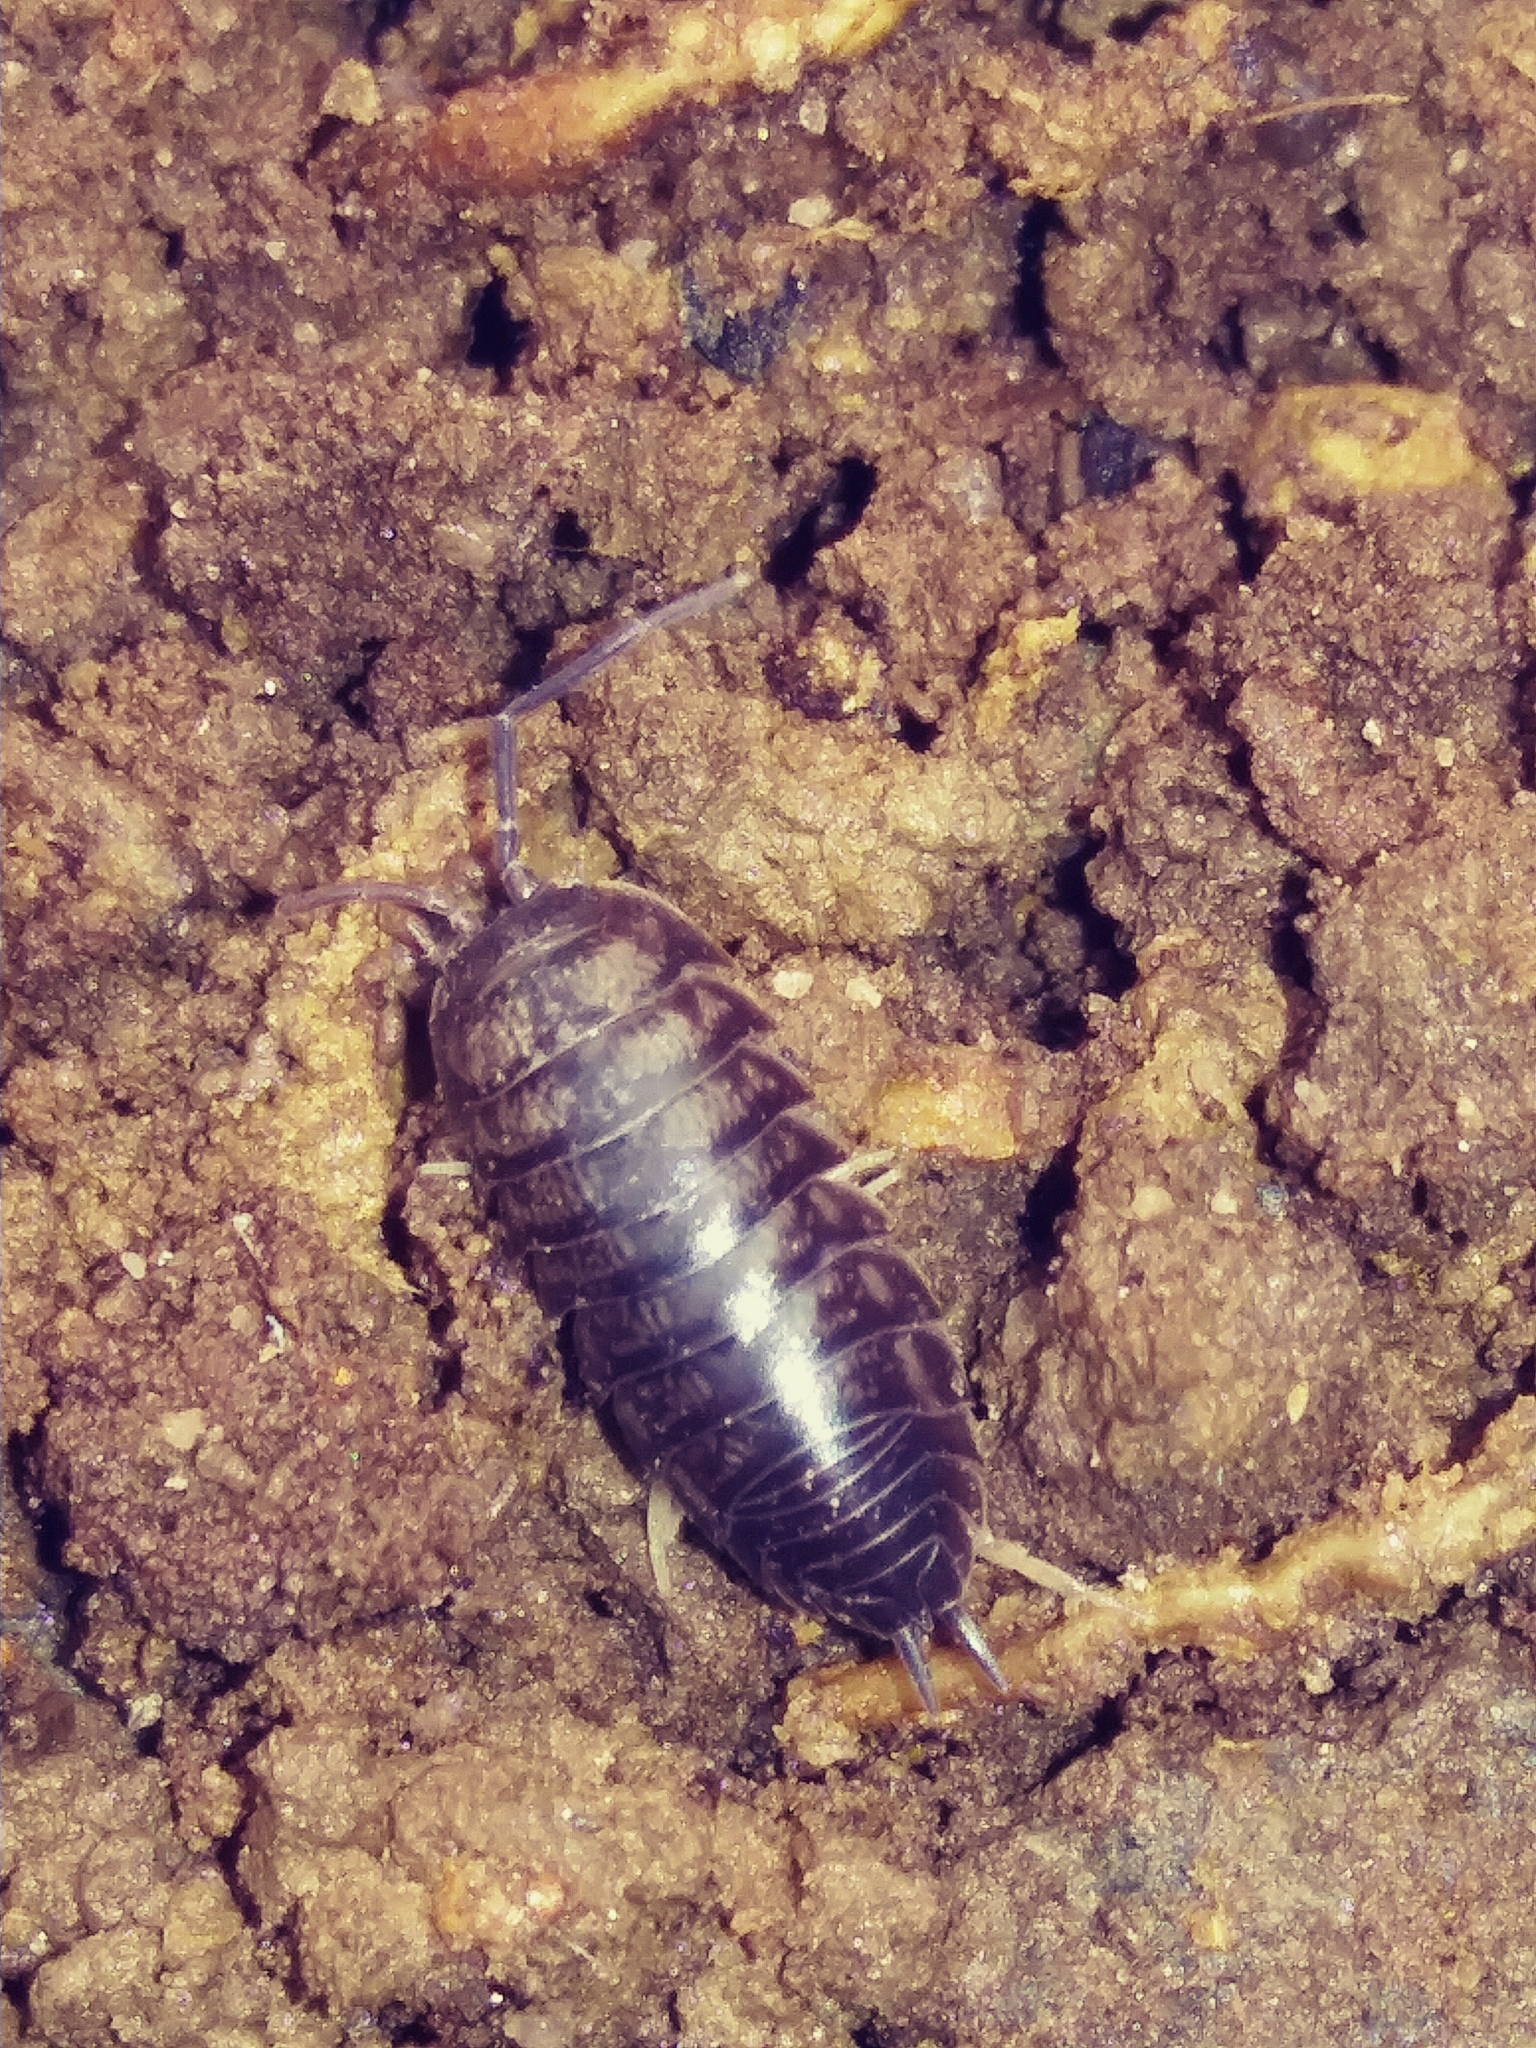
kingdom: Animalia
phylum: Arthropoda
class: Malacostraca
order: Isopoda
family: Cylisticidae
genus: Cylisticus
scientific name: Cylisticus convexus
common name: Curly woodlouse
